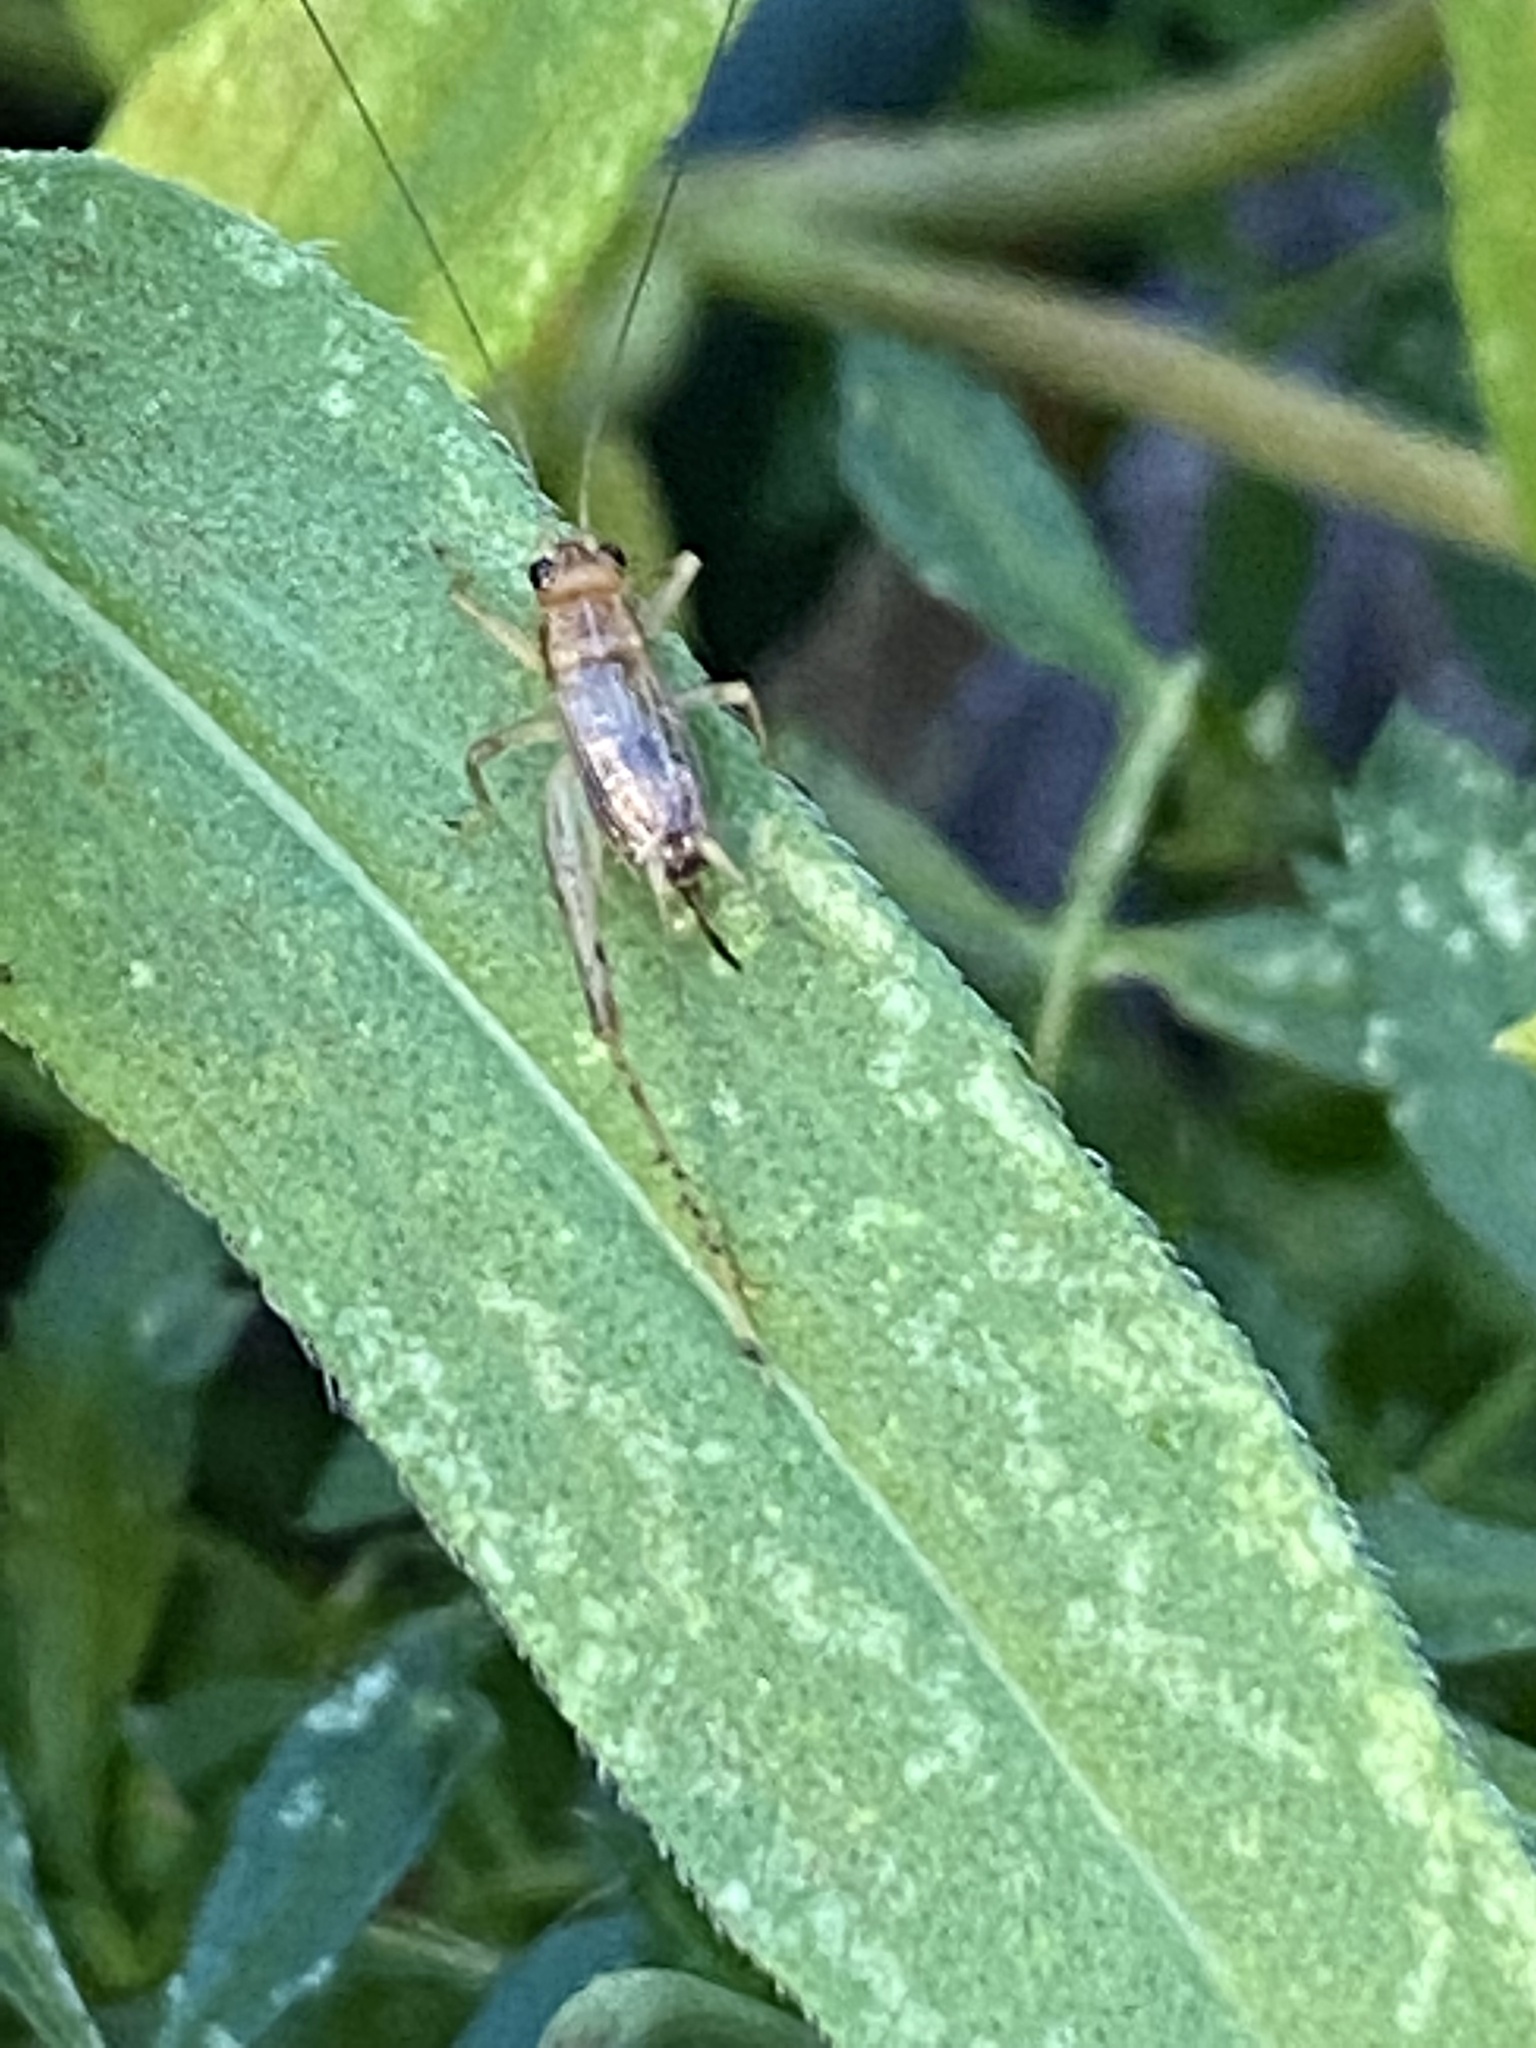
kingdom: Animalia
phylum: Arthropoda
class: Insecta
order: Orthoptera
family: Trigonidiidae
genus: Anaxipha
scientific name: Anaxipha exigua
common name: Say's bush cricket
